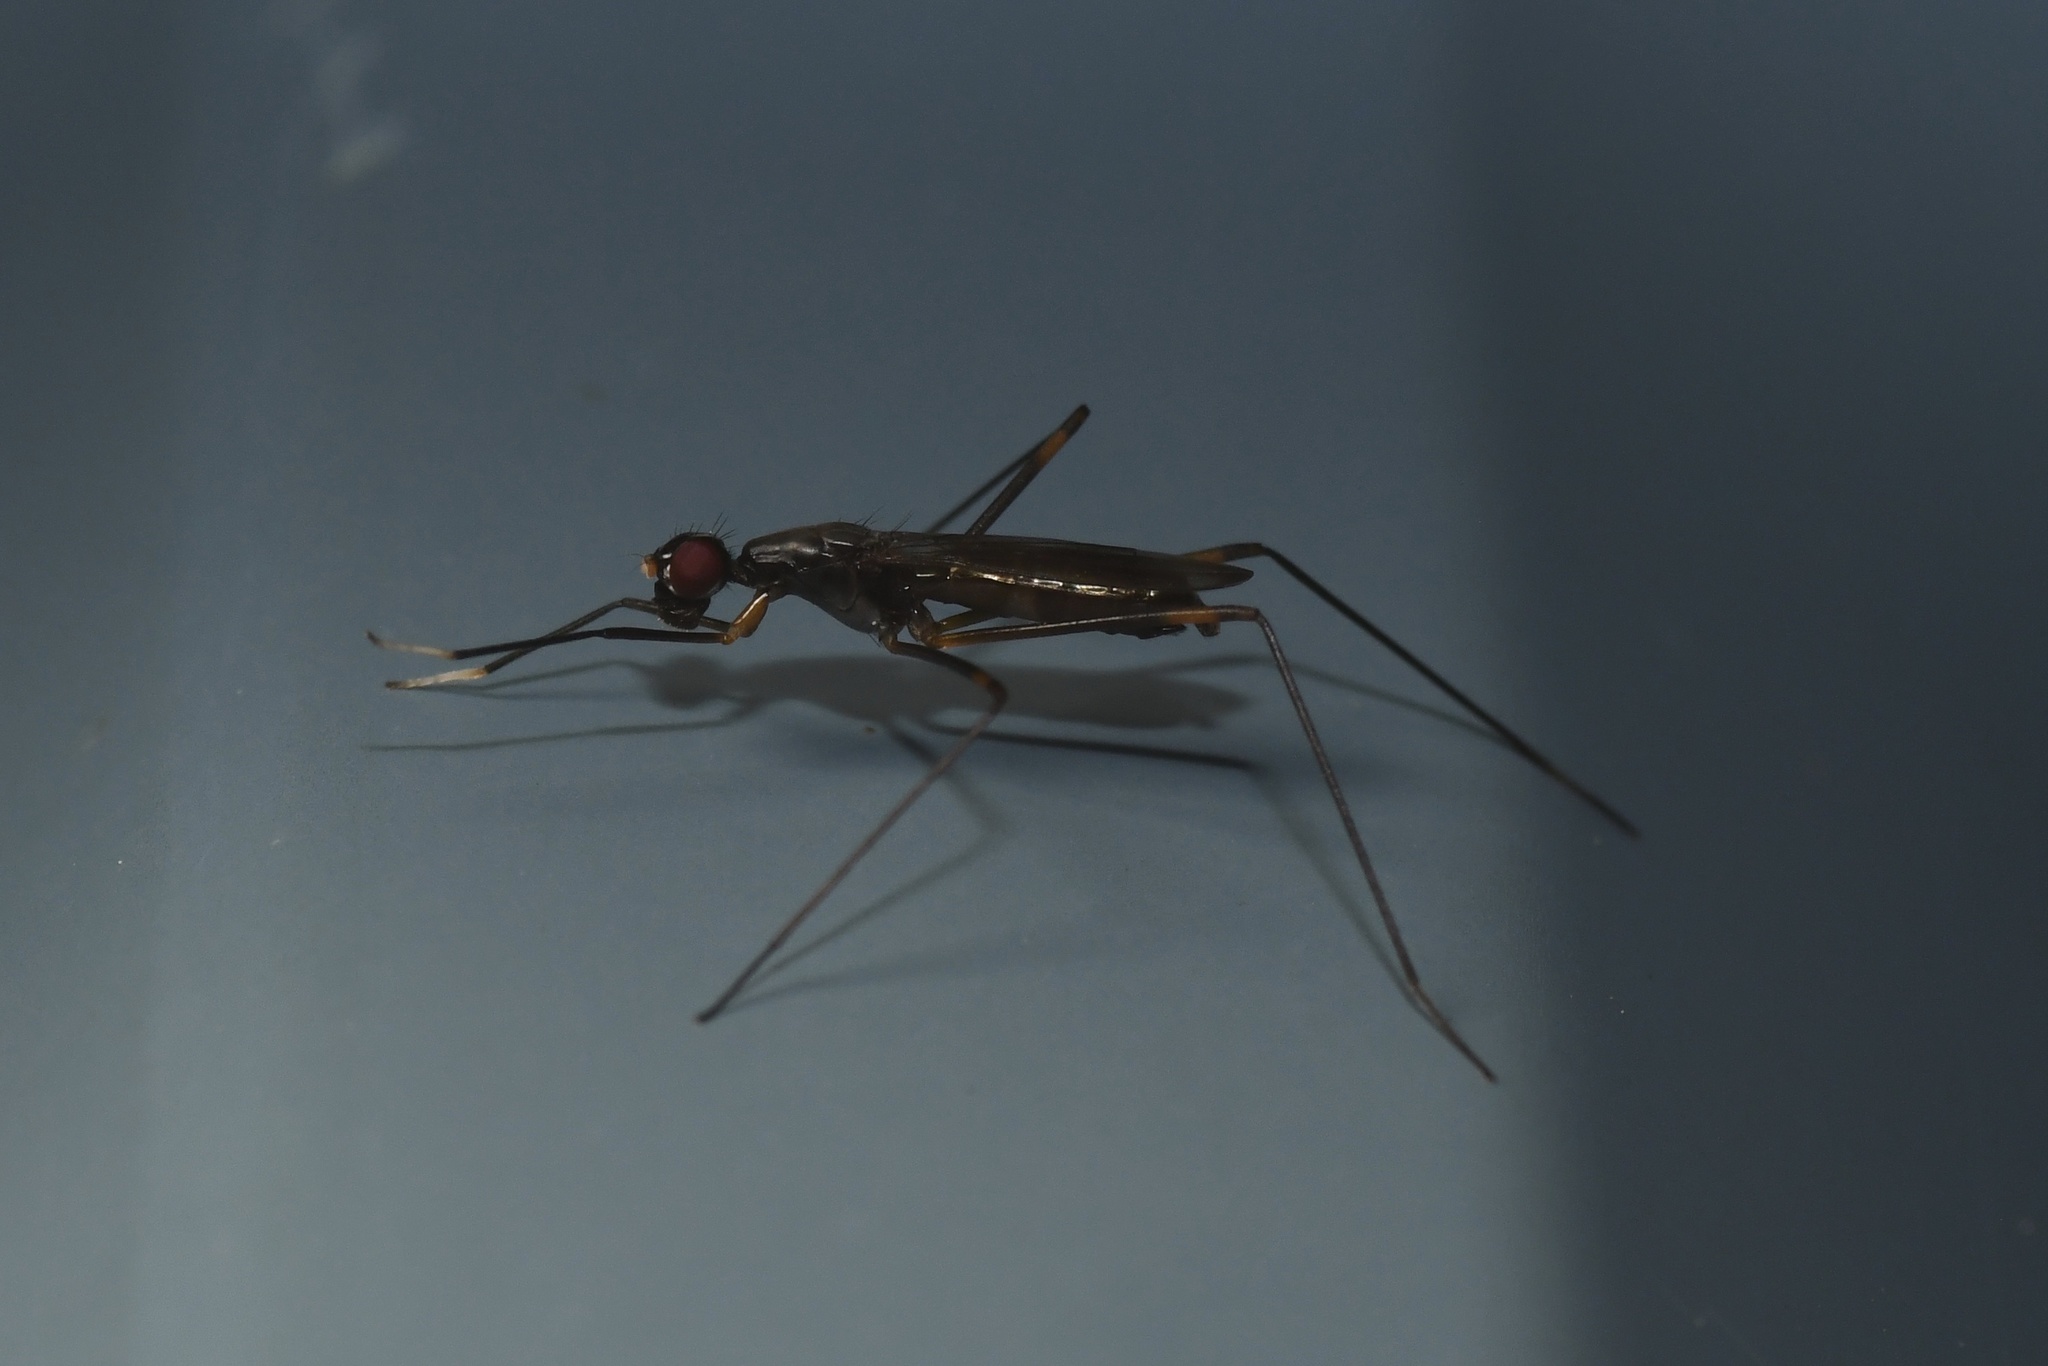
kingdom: Animalia
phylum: Arthropoda
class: Insecta
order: Diptera
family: Micropezidae
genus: Rainieria
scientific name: Rainieria antennaepes
